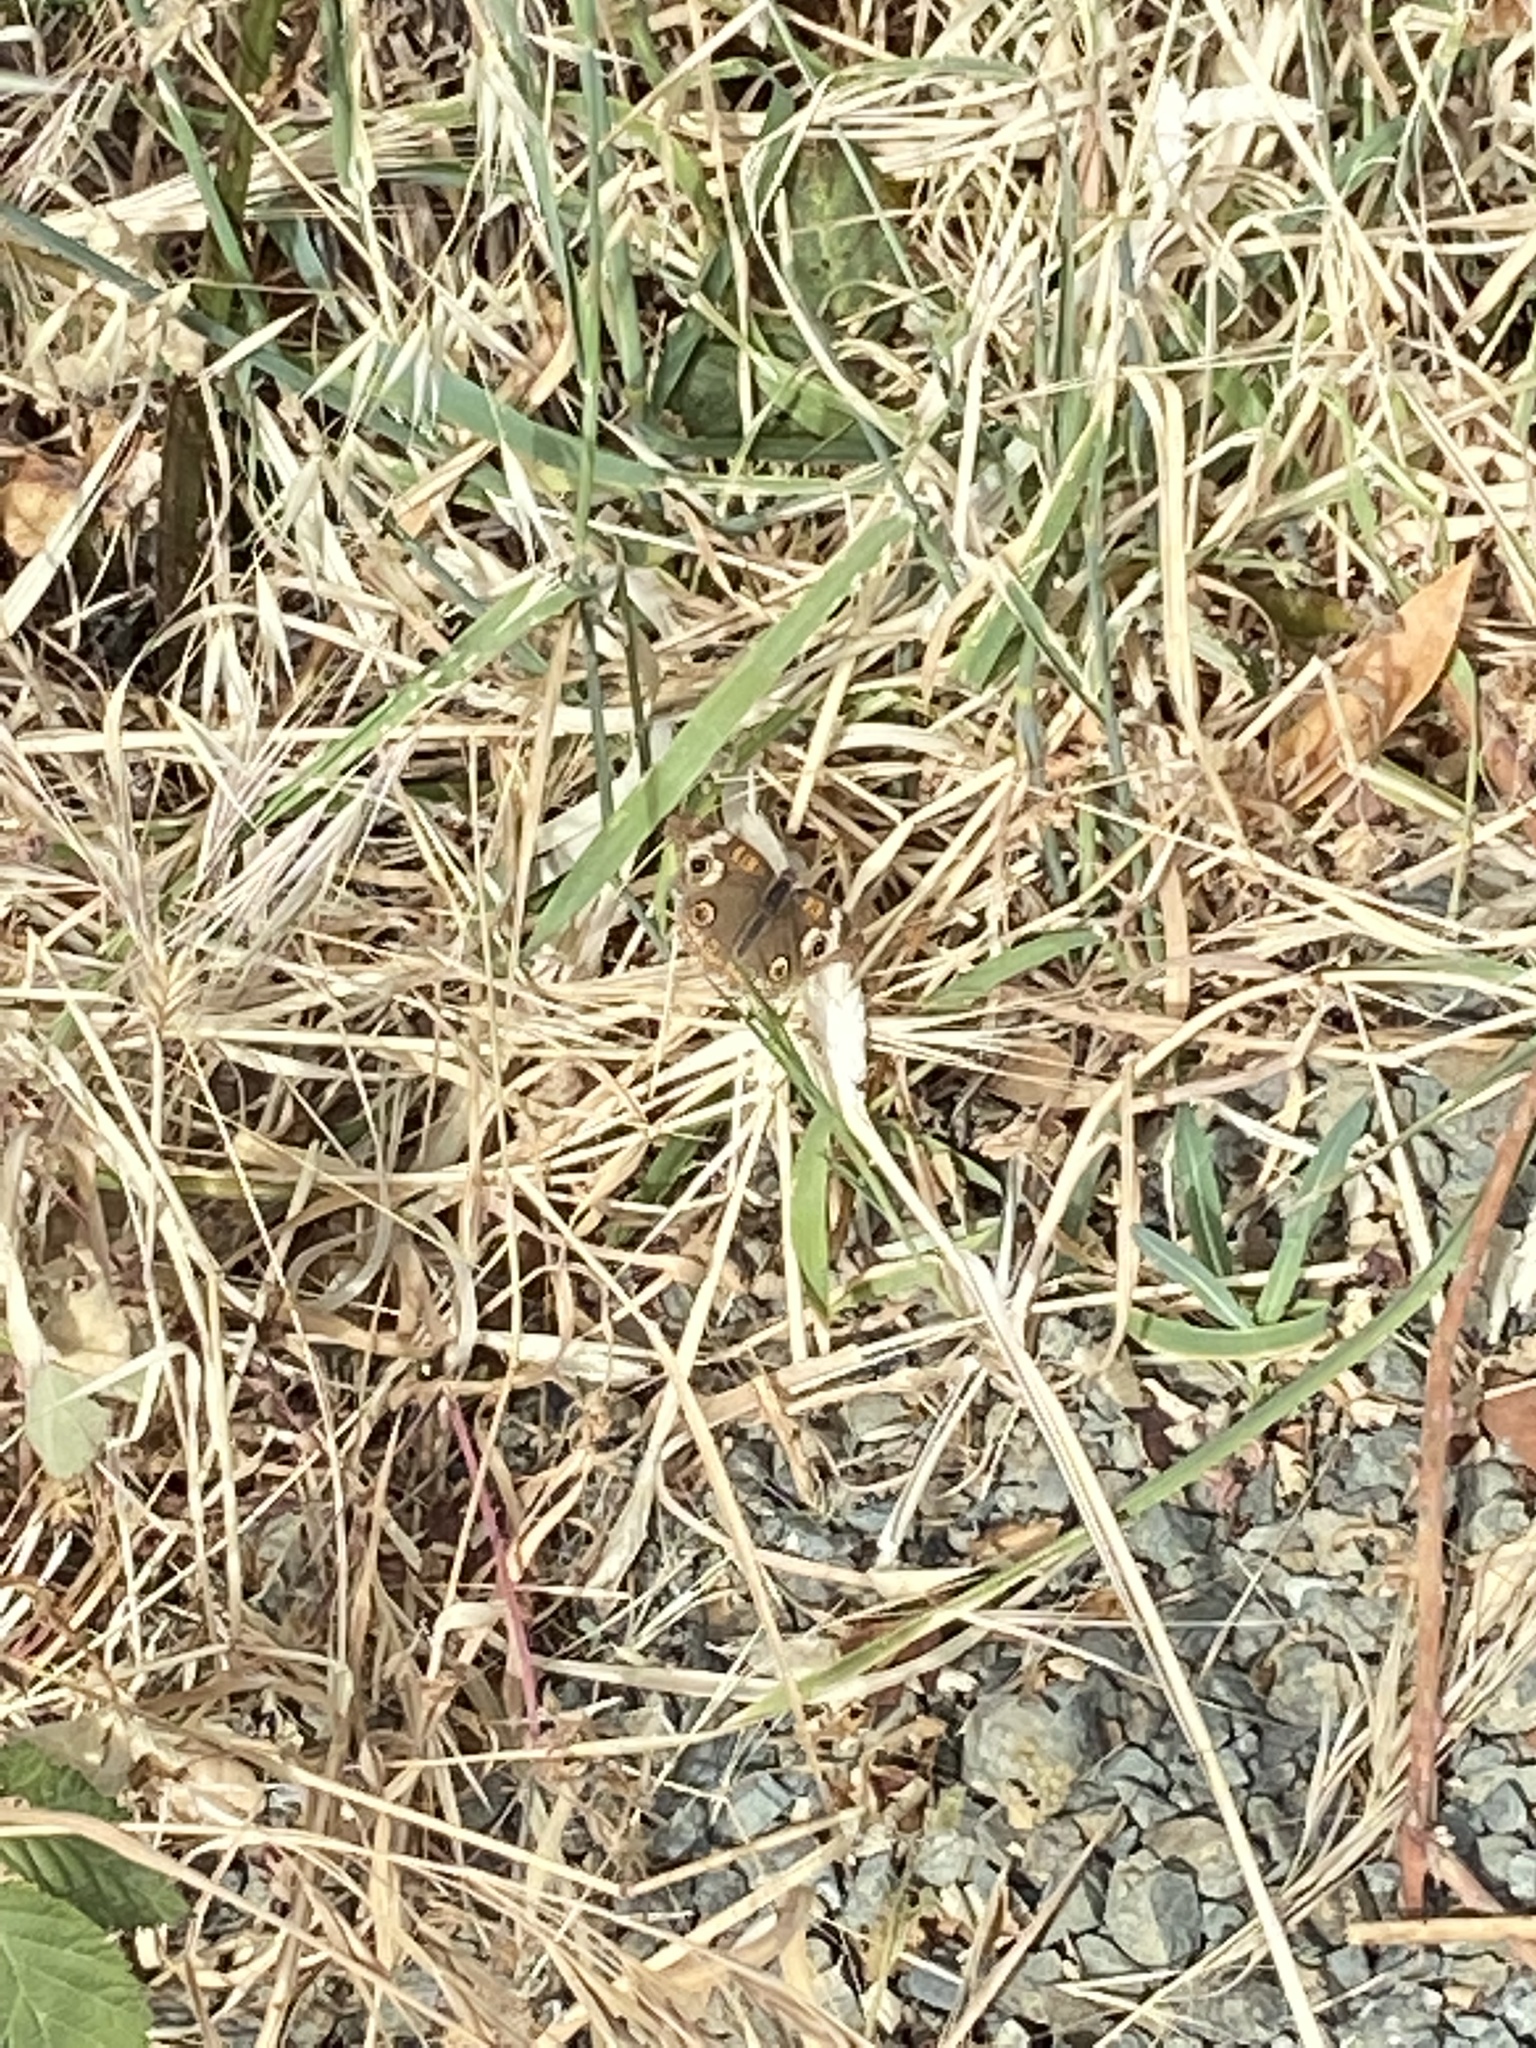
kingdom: Animalia
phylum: Arthropoda
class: Insecta
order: Lepidoptera
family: Nymphalidae
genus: Junonia
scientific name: Junonia grisea
